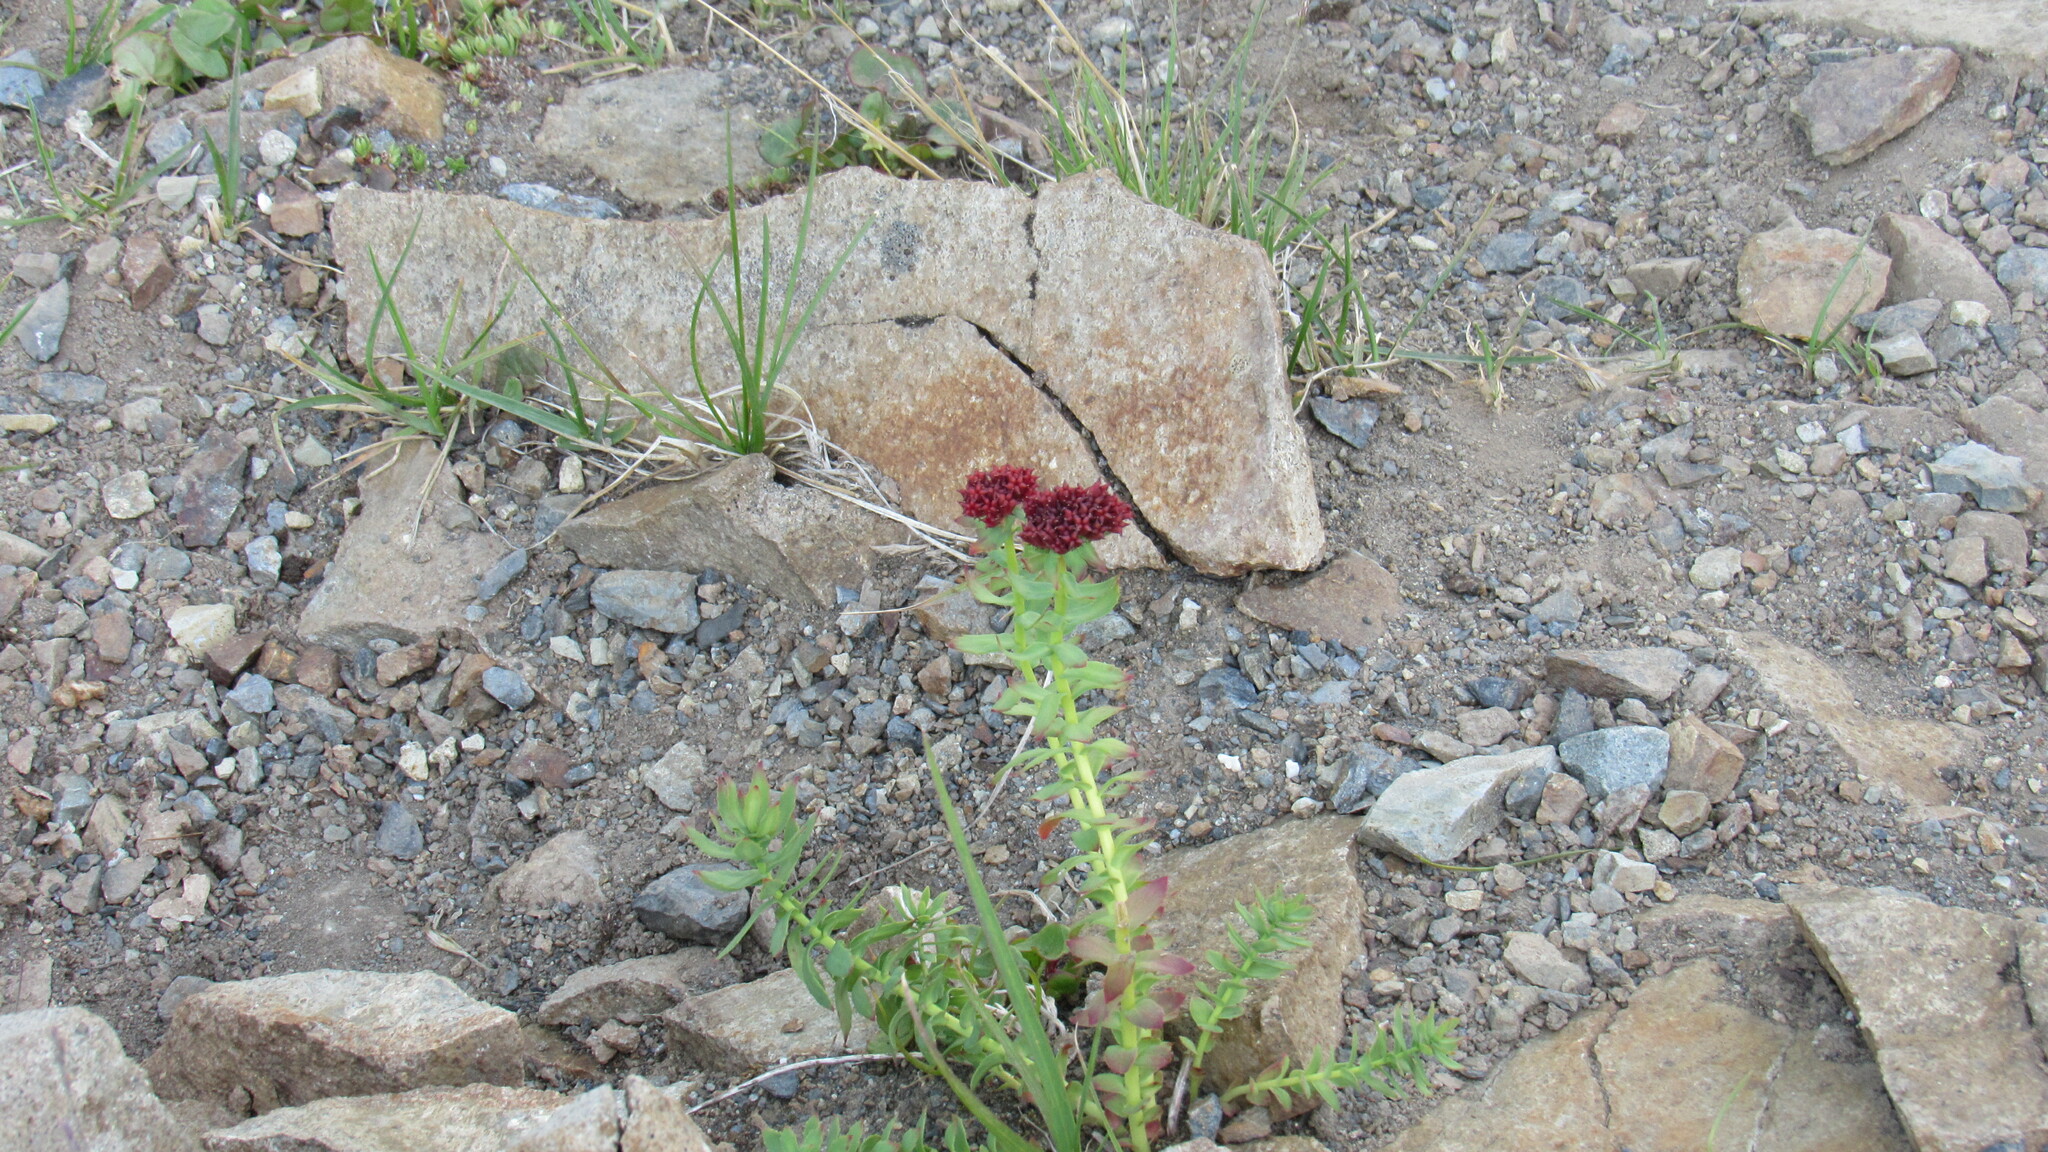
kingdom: Plantae
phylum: Tracheophyta
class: Magnoliopsida
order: Saxifragales
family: Crassulaceae
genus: Rhodiola
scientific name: Rhodiola integrifolia
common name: Western roseroot
